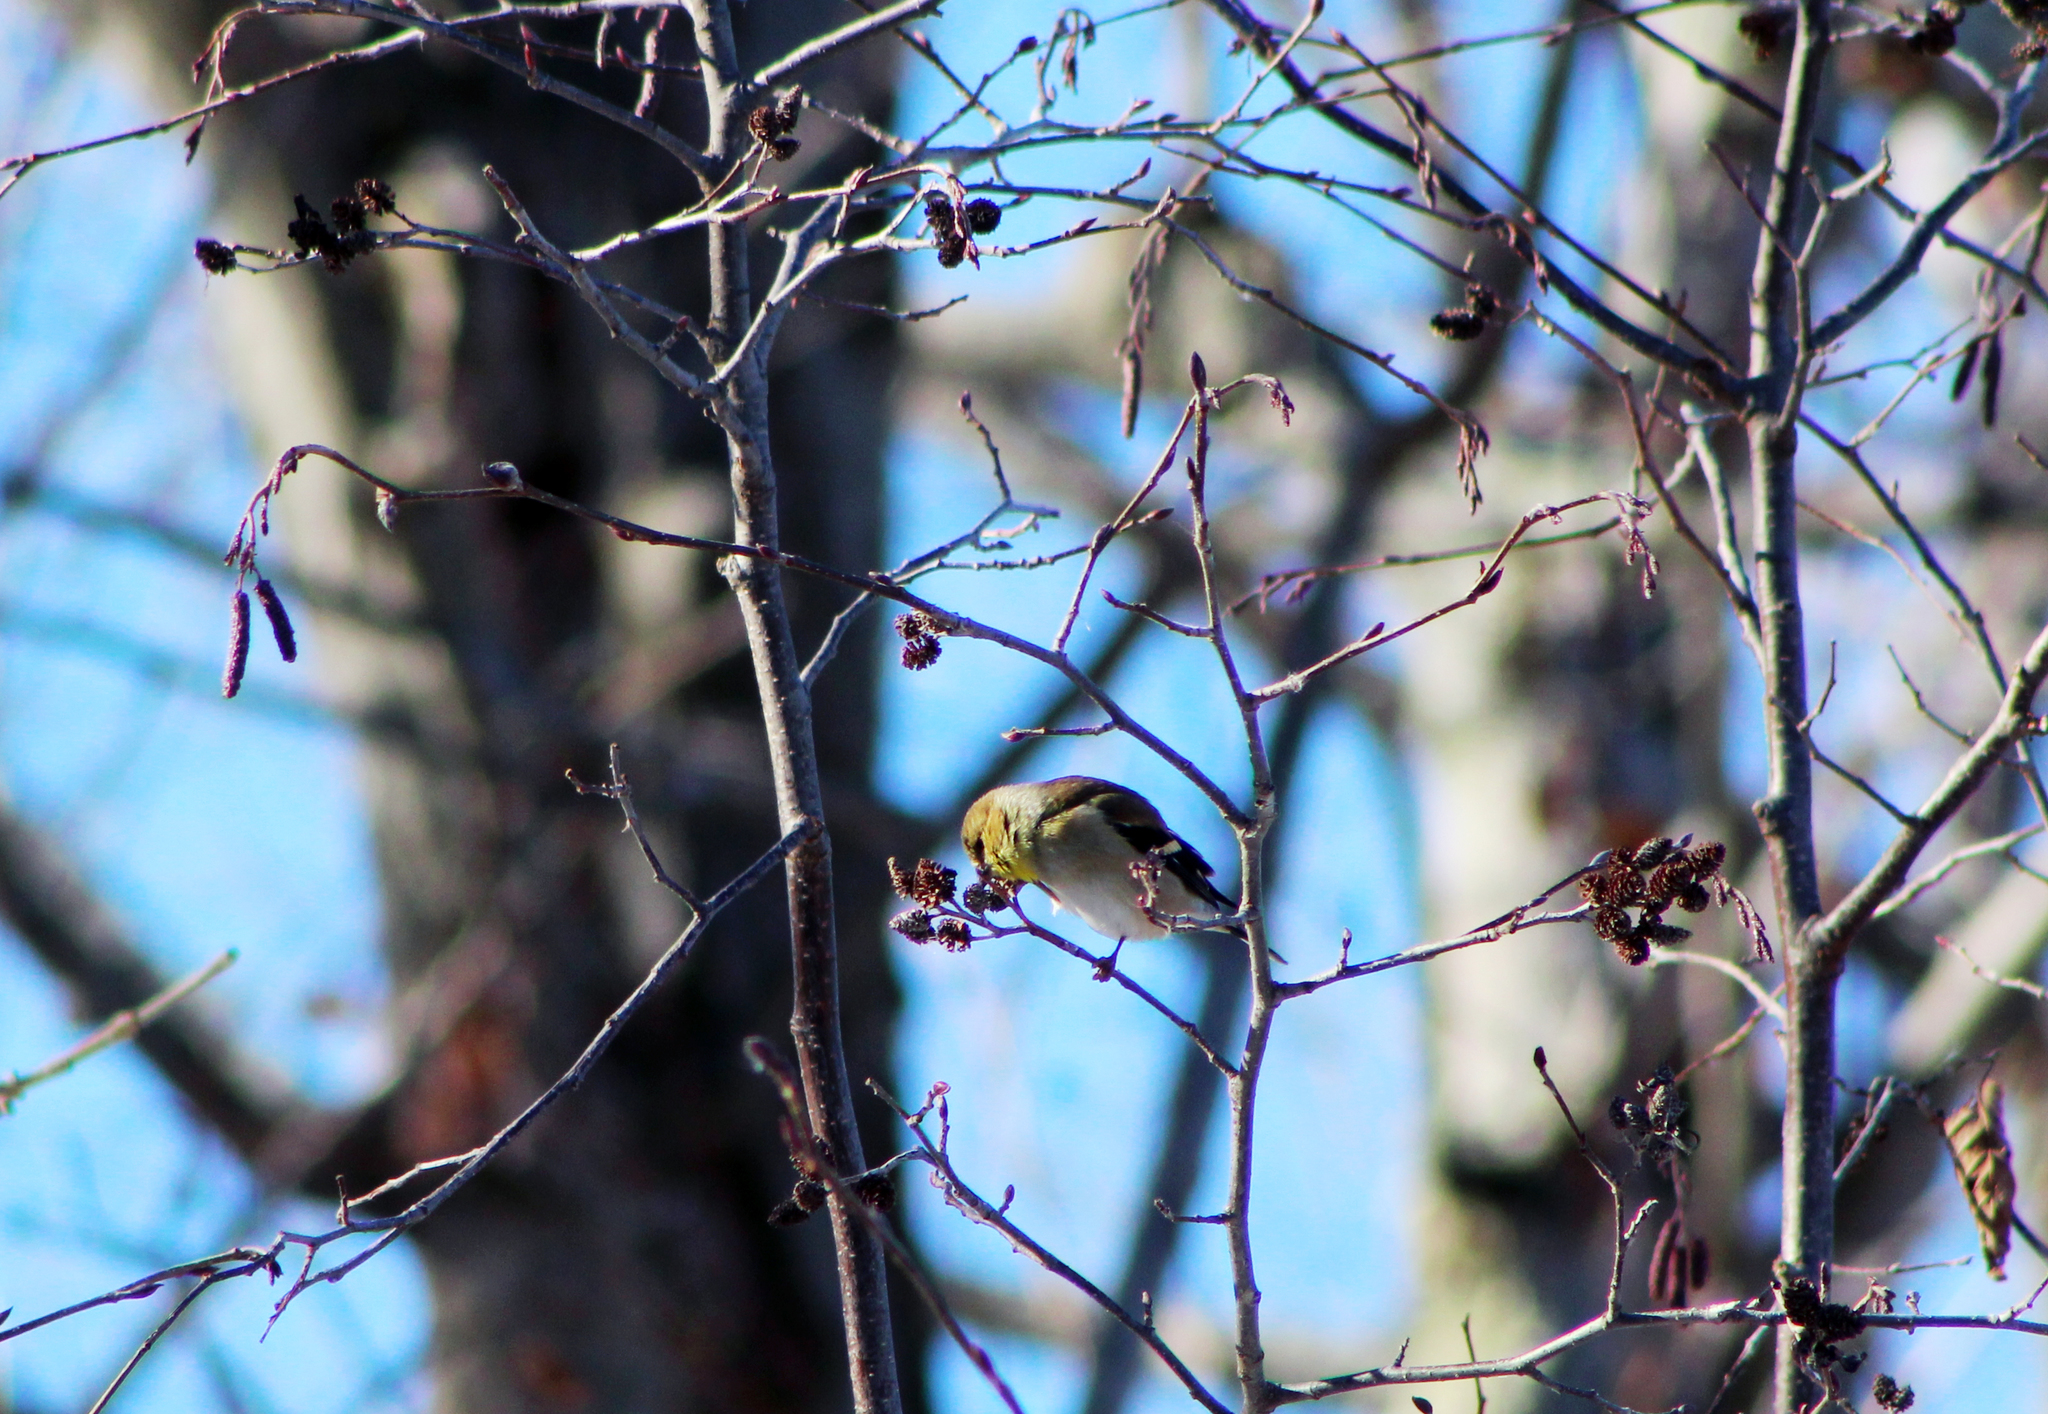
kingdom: Animalia
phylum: Chordata
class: Aves
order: Passeriformes
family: Fringillidae
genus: Spinus
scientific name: Spinus tristis
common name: American goldfinch
